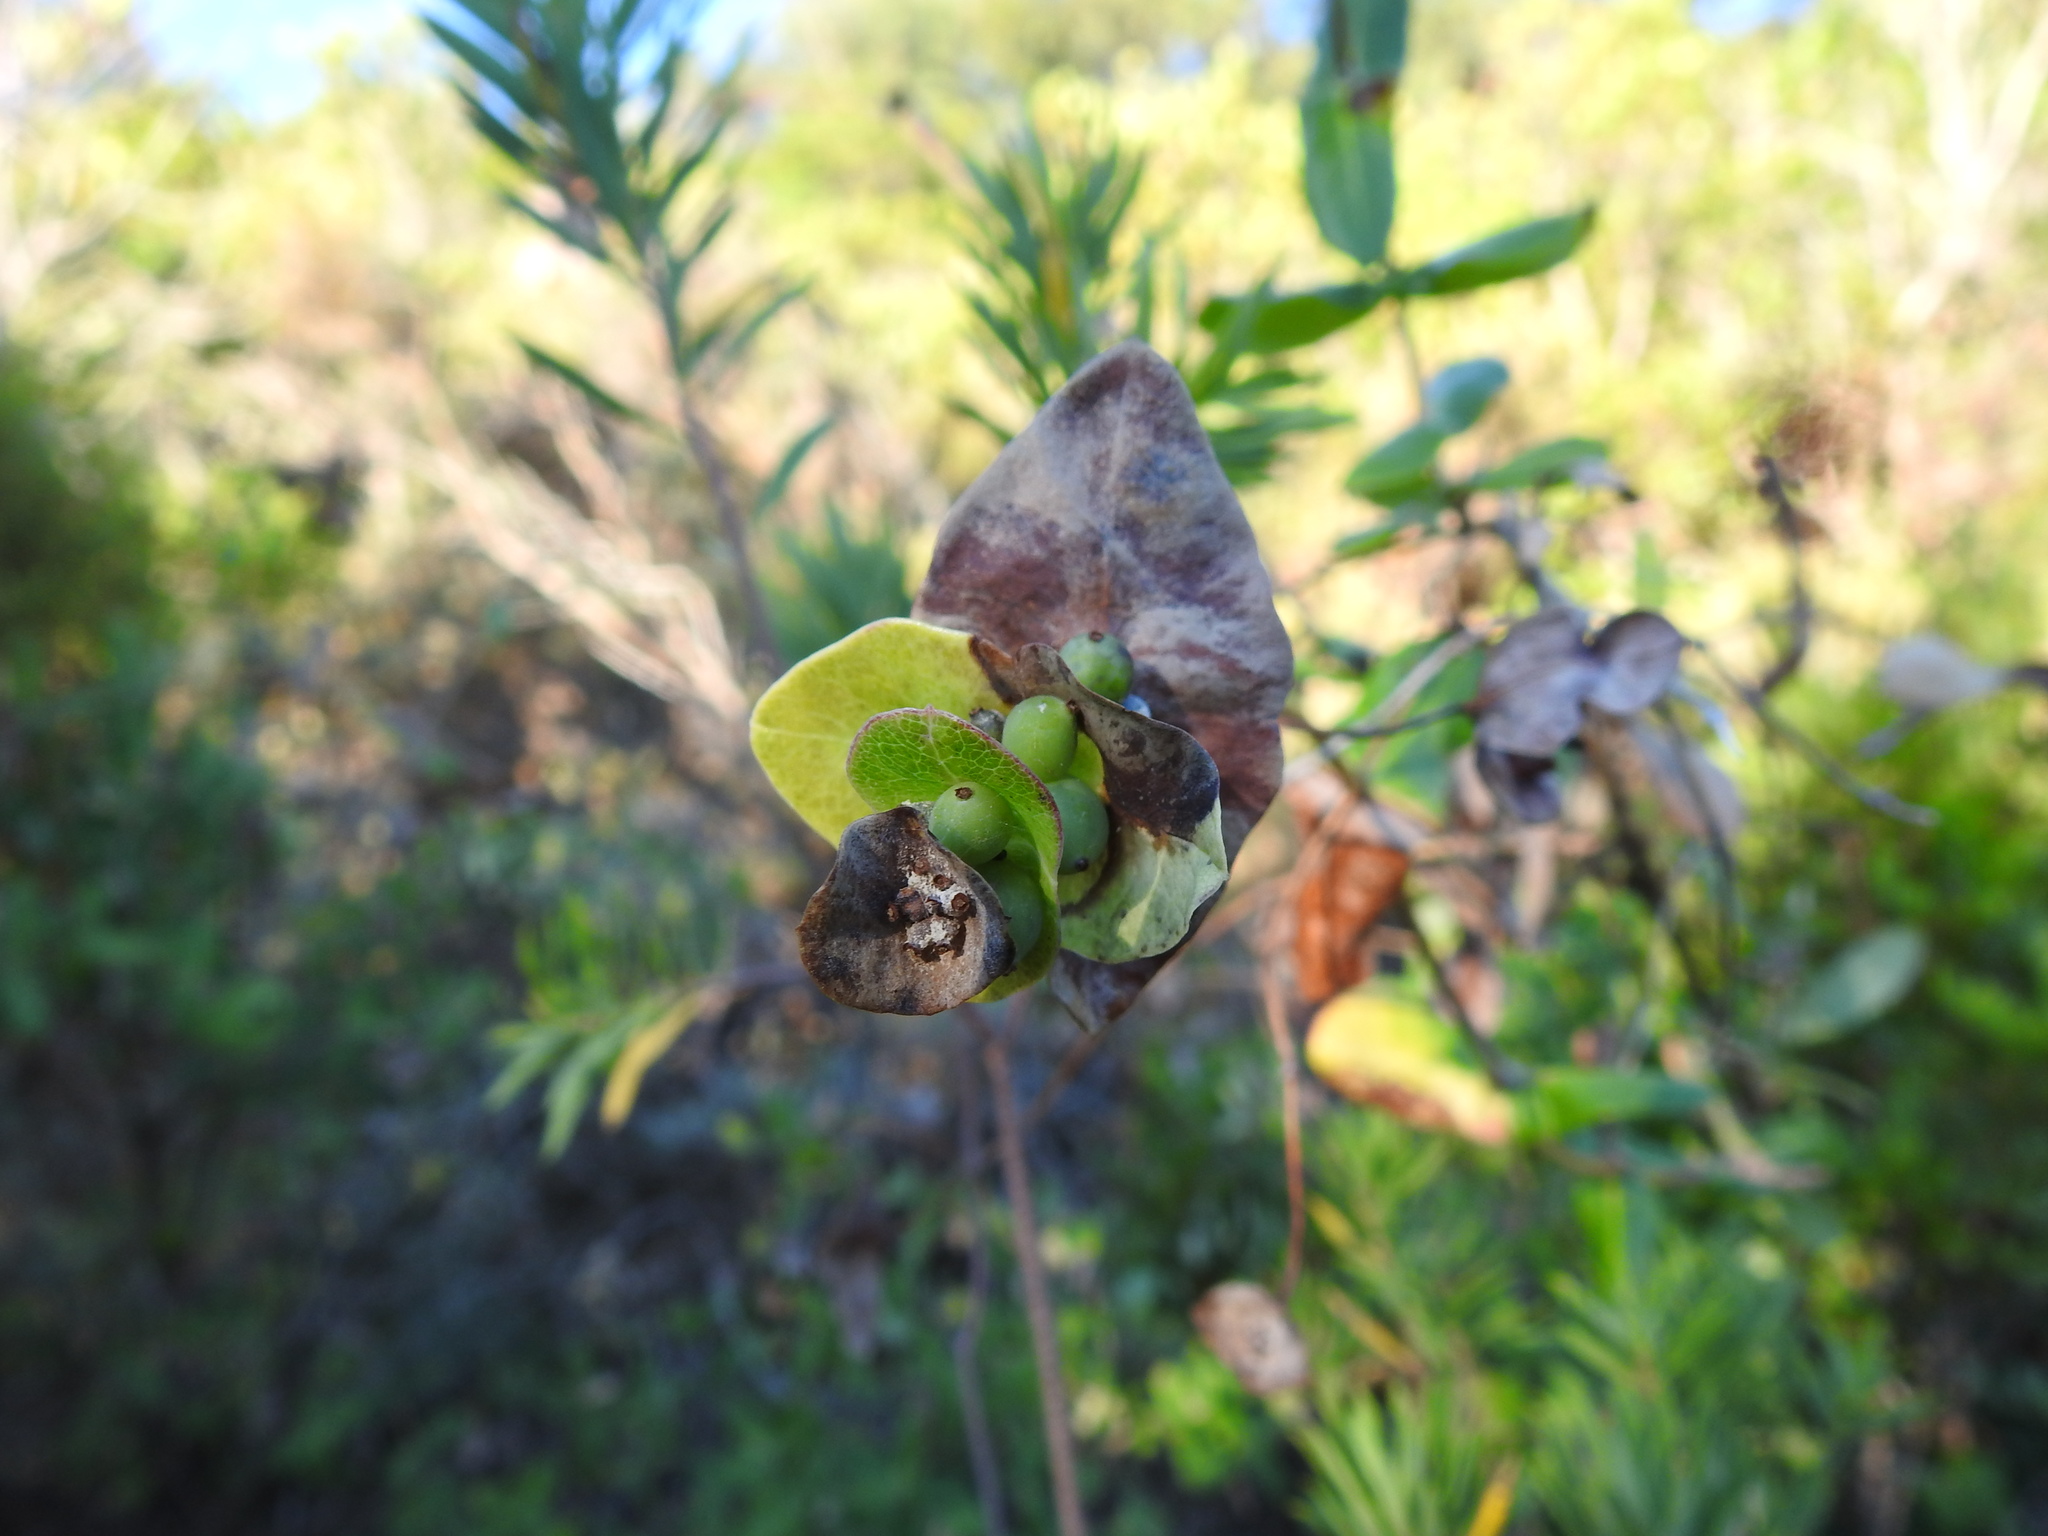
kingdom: Plantae
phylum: Tracheophyta
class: Magnoliopsida
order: Dipsacales
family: Caprifoliaceae
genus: Lonicera
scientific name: Lonicera implexa
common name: Minorca honeysuckle
